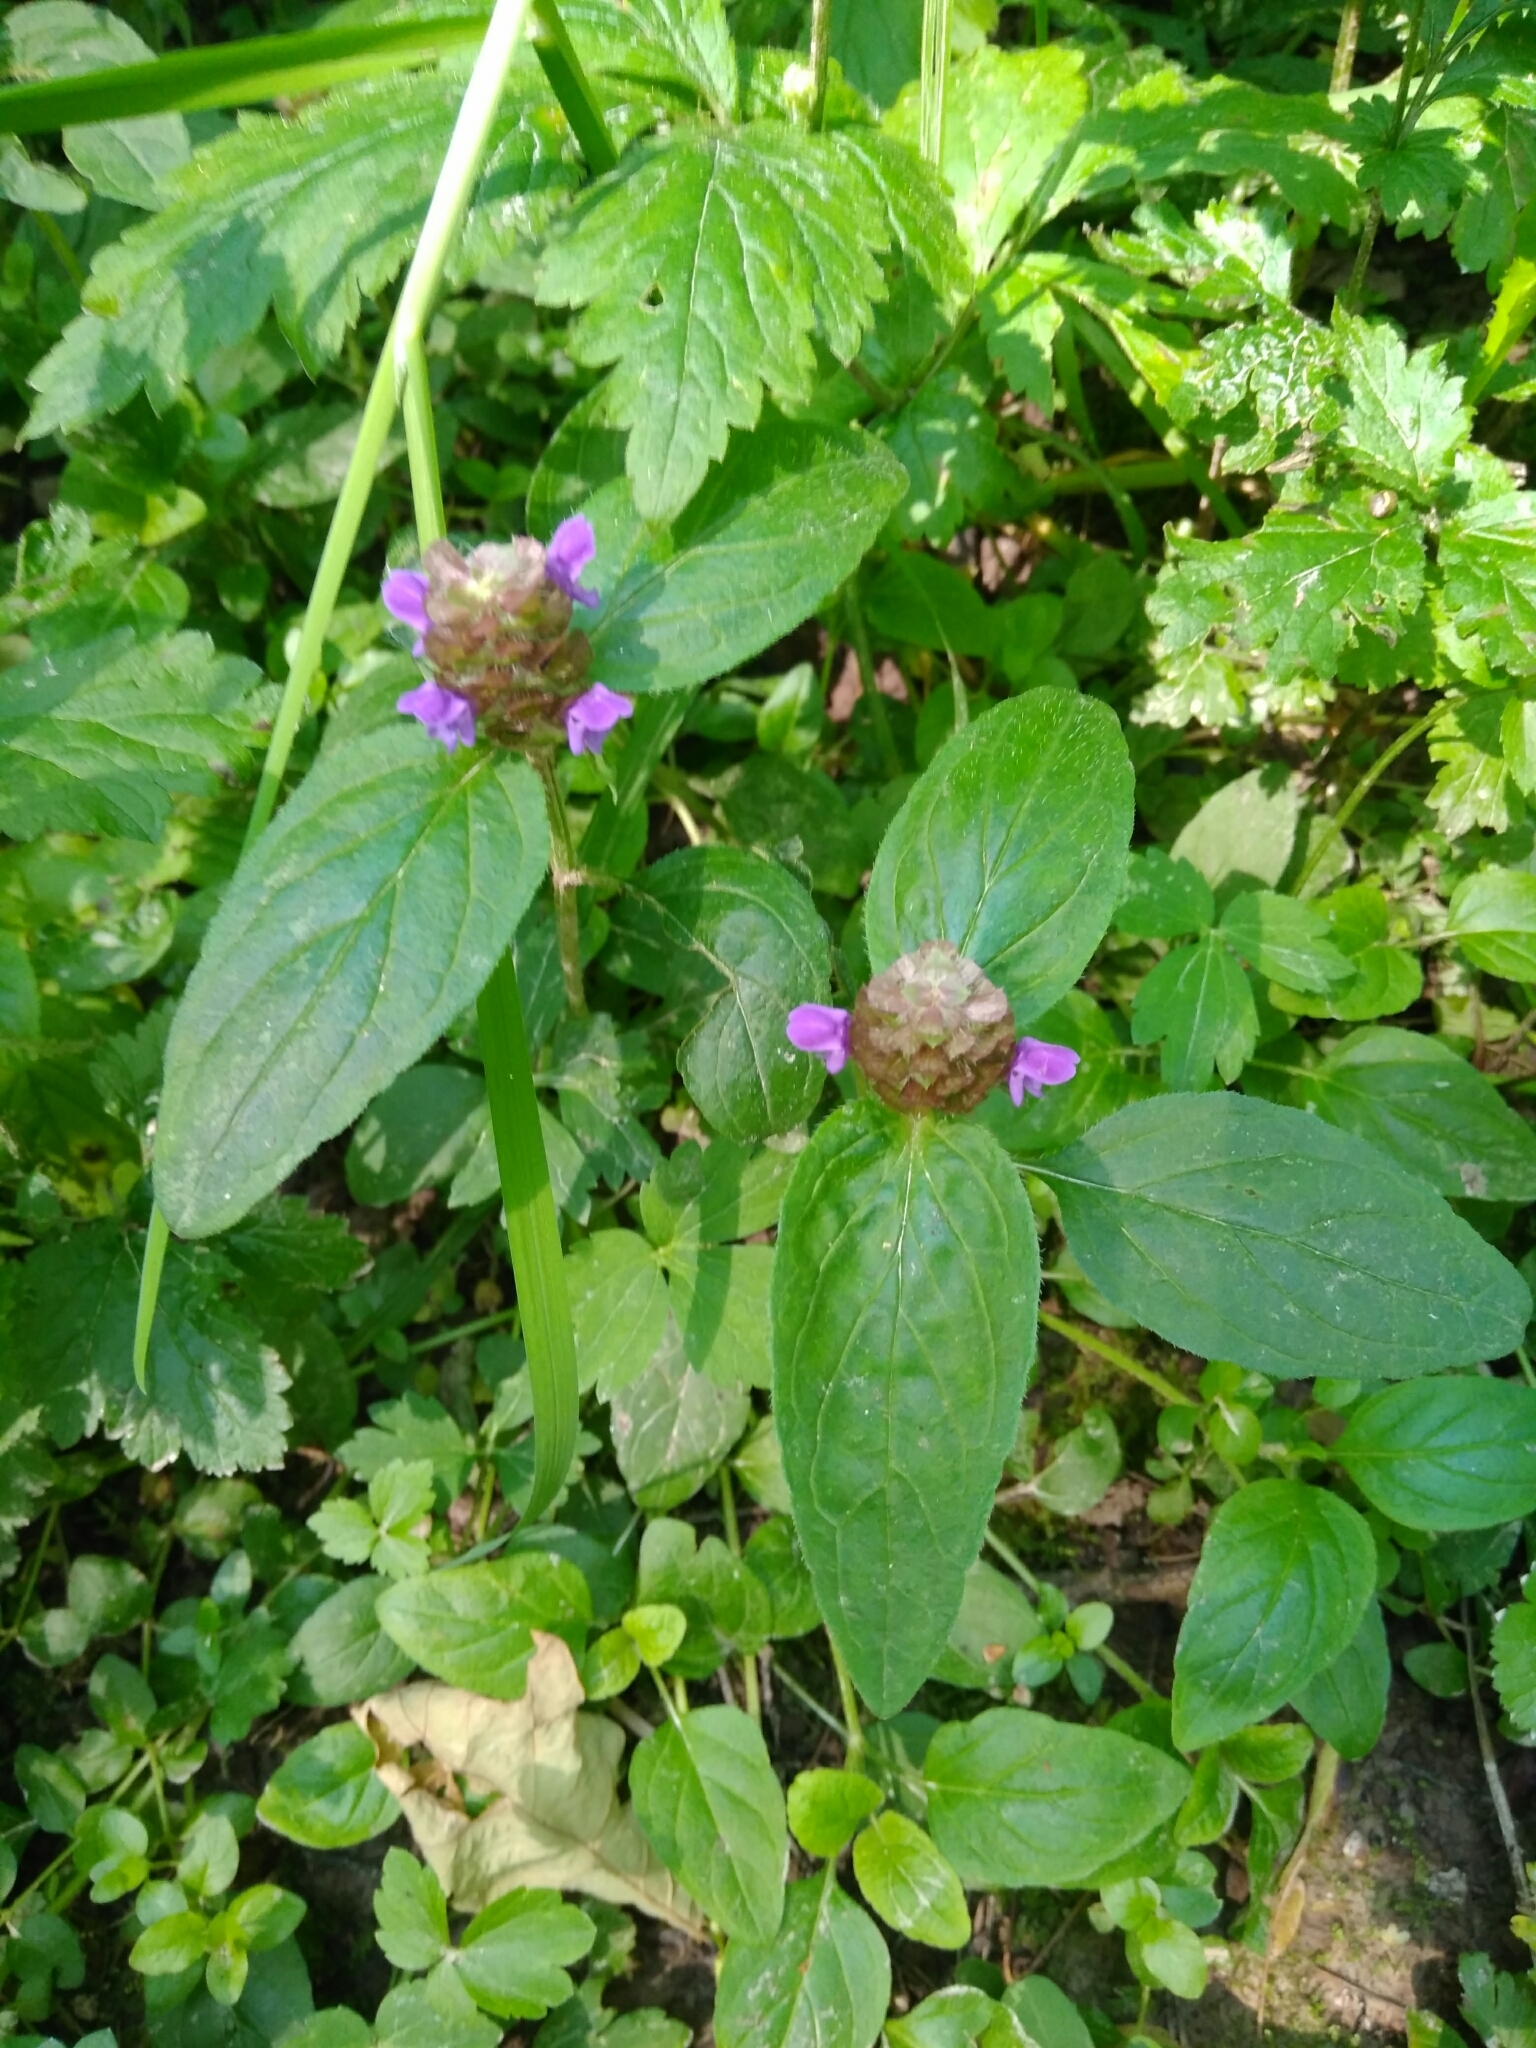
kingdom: Plantae
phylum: Tracheophyta
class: Magnoliopsida
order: Lamiales
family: Lamiaceae
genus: Prunella
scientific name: Prunella vulgaris
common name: Heal-all
